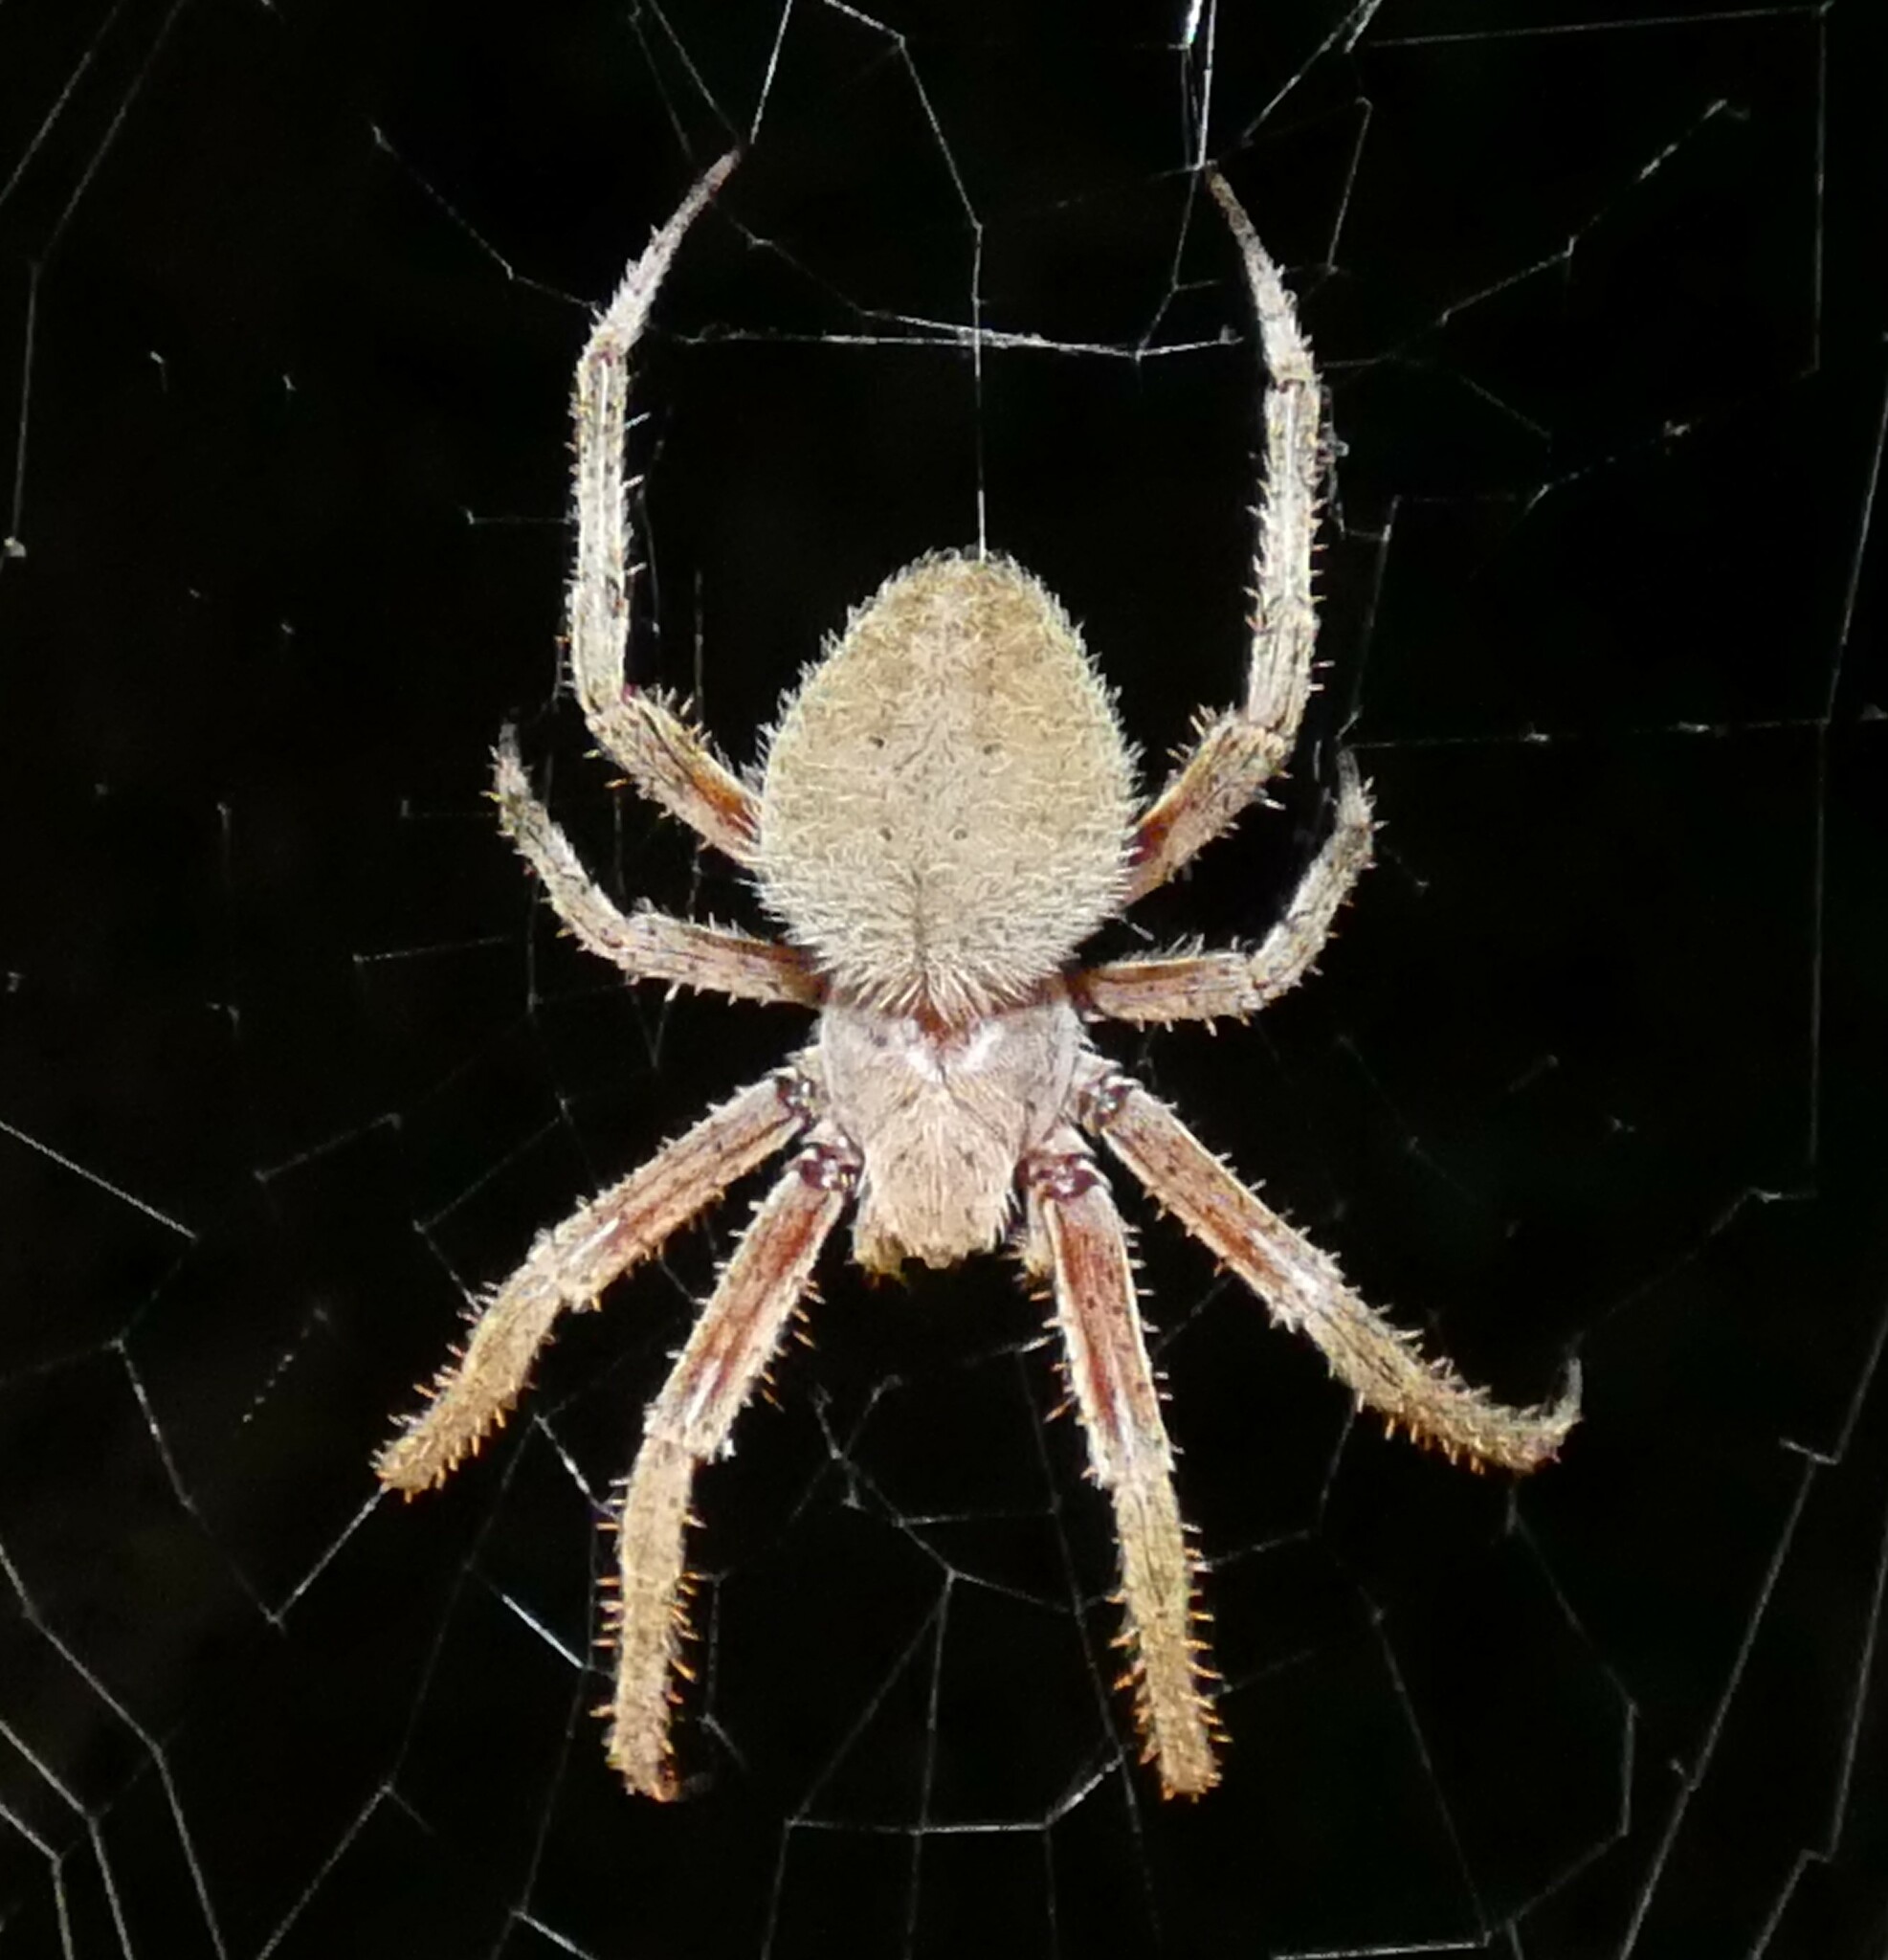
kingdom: Animalia
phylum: Arthropoda
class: Arachnida
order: Araneae
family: Araneidae
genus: Neoscona
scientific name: Neoscona crucifera
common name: Spotted orbweaver
